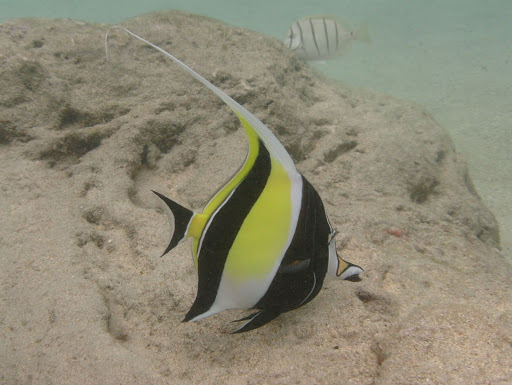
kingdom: Animalia
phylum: Chordata
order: Perciformes
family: Zanclidae
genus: Zanclus
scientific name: Zanclus cornutus
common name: Moorish idol
